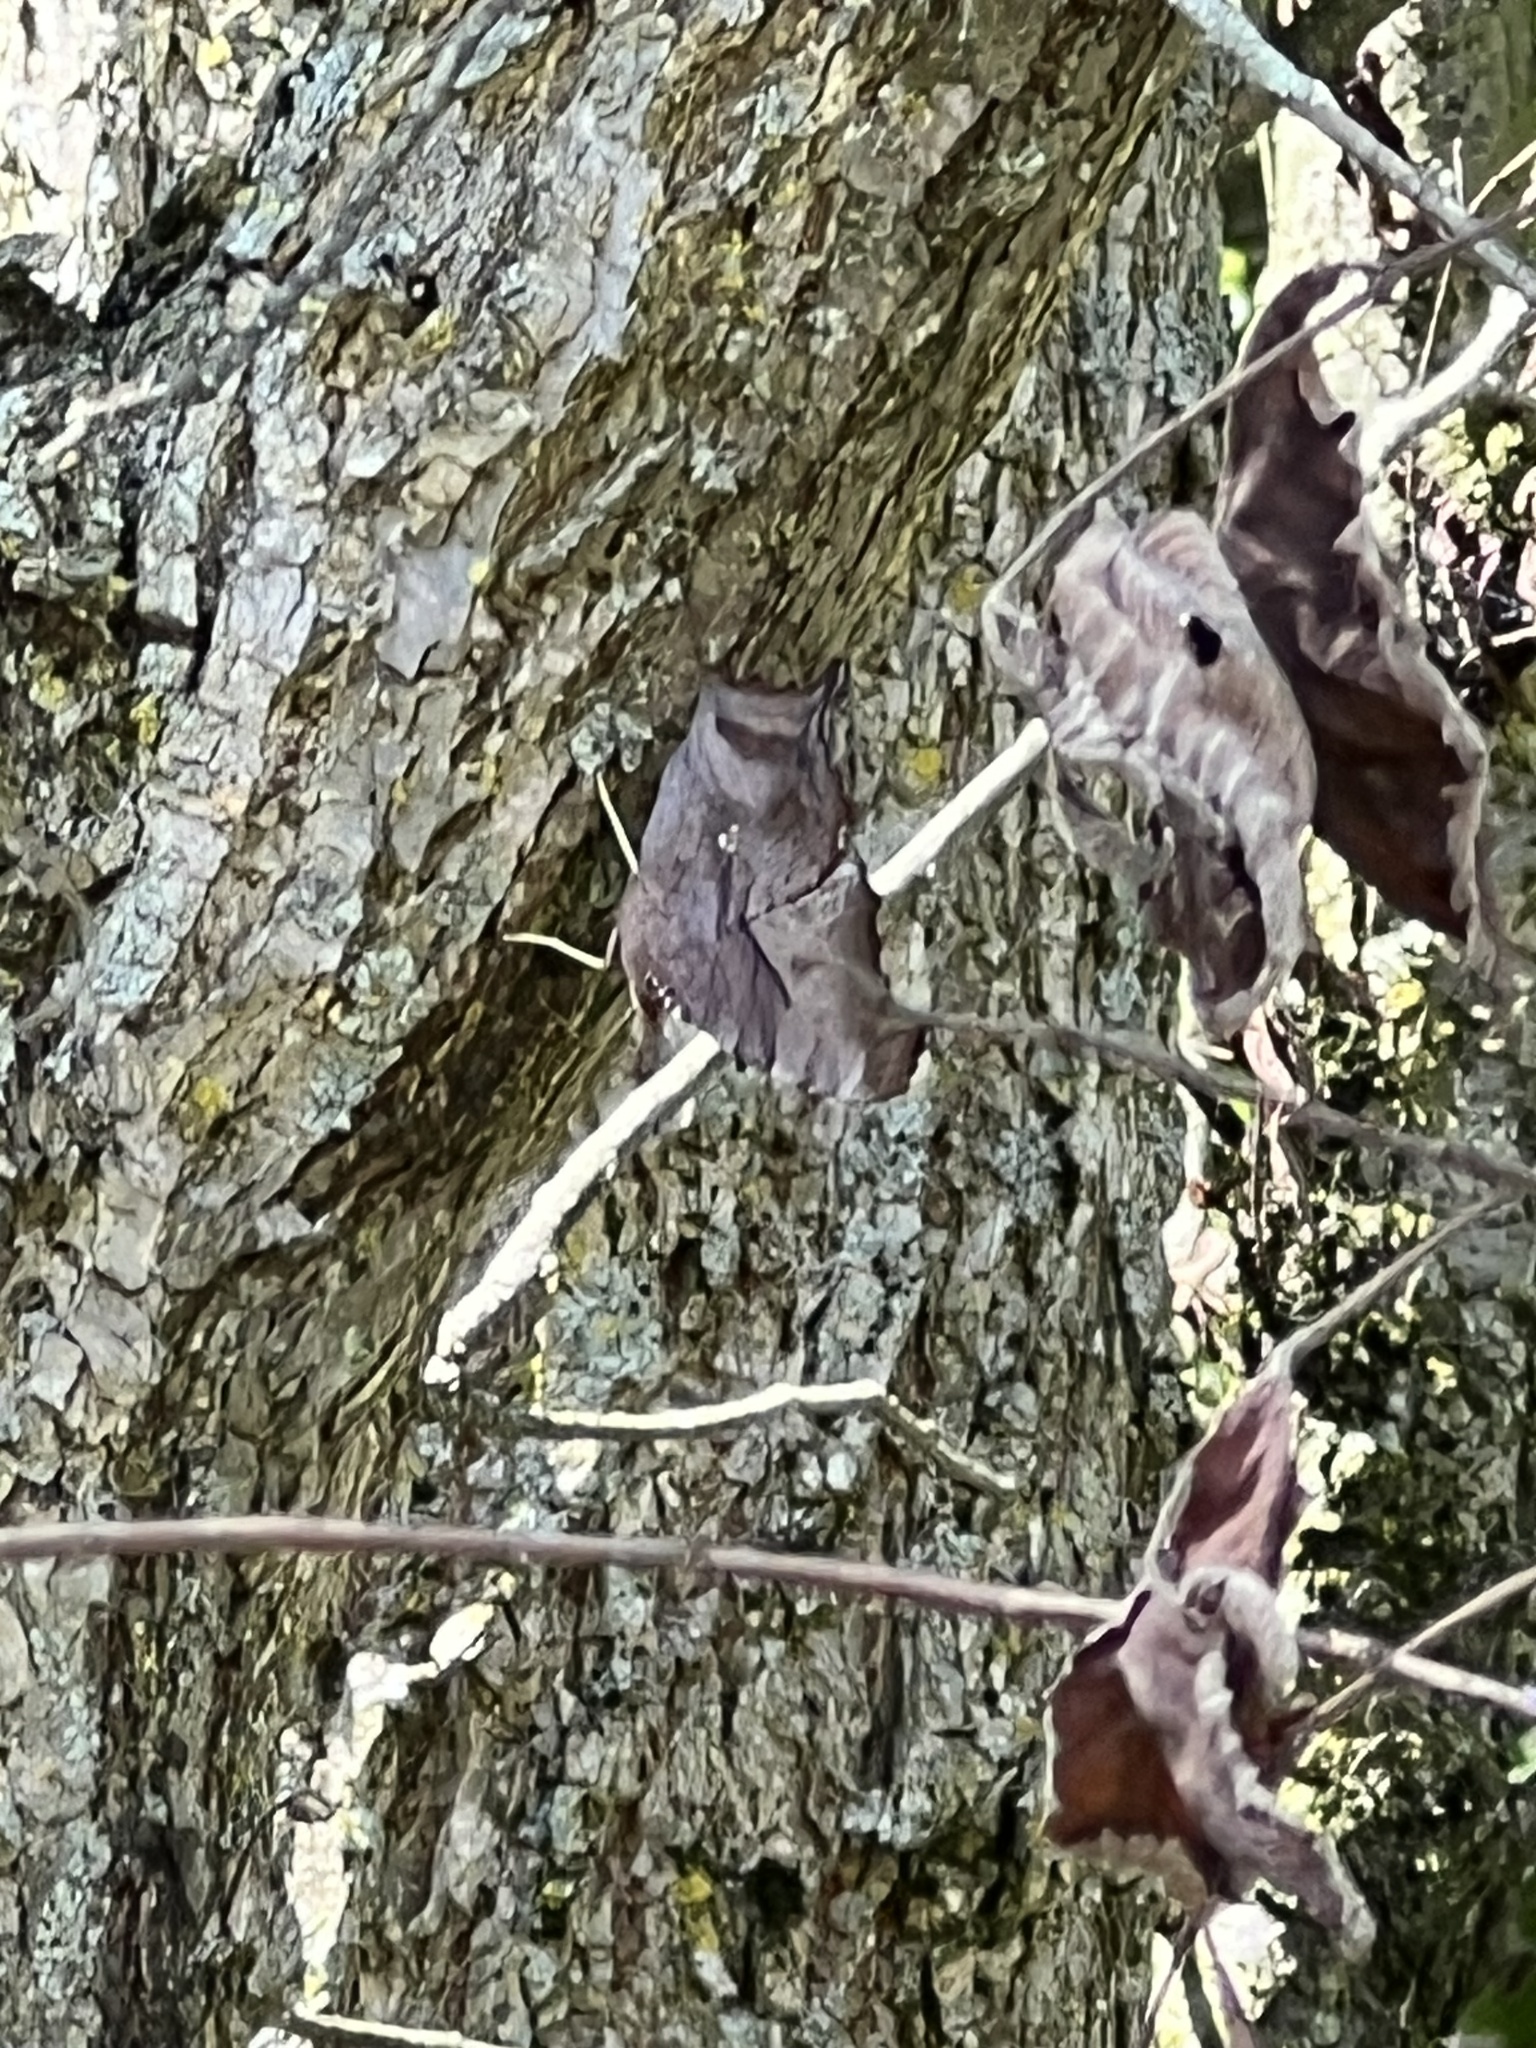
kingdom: Animalia
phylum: Arthropoda
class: Insecta
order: Lepidoptera
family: Nymphalidae
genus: Polygonia
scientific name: Polygonia interrogationis
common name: Question mark
